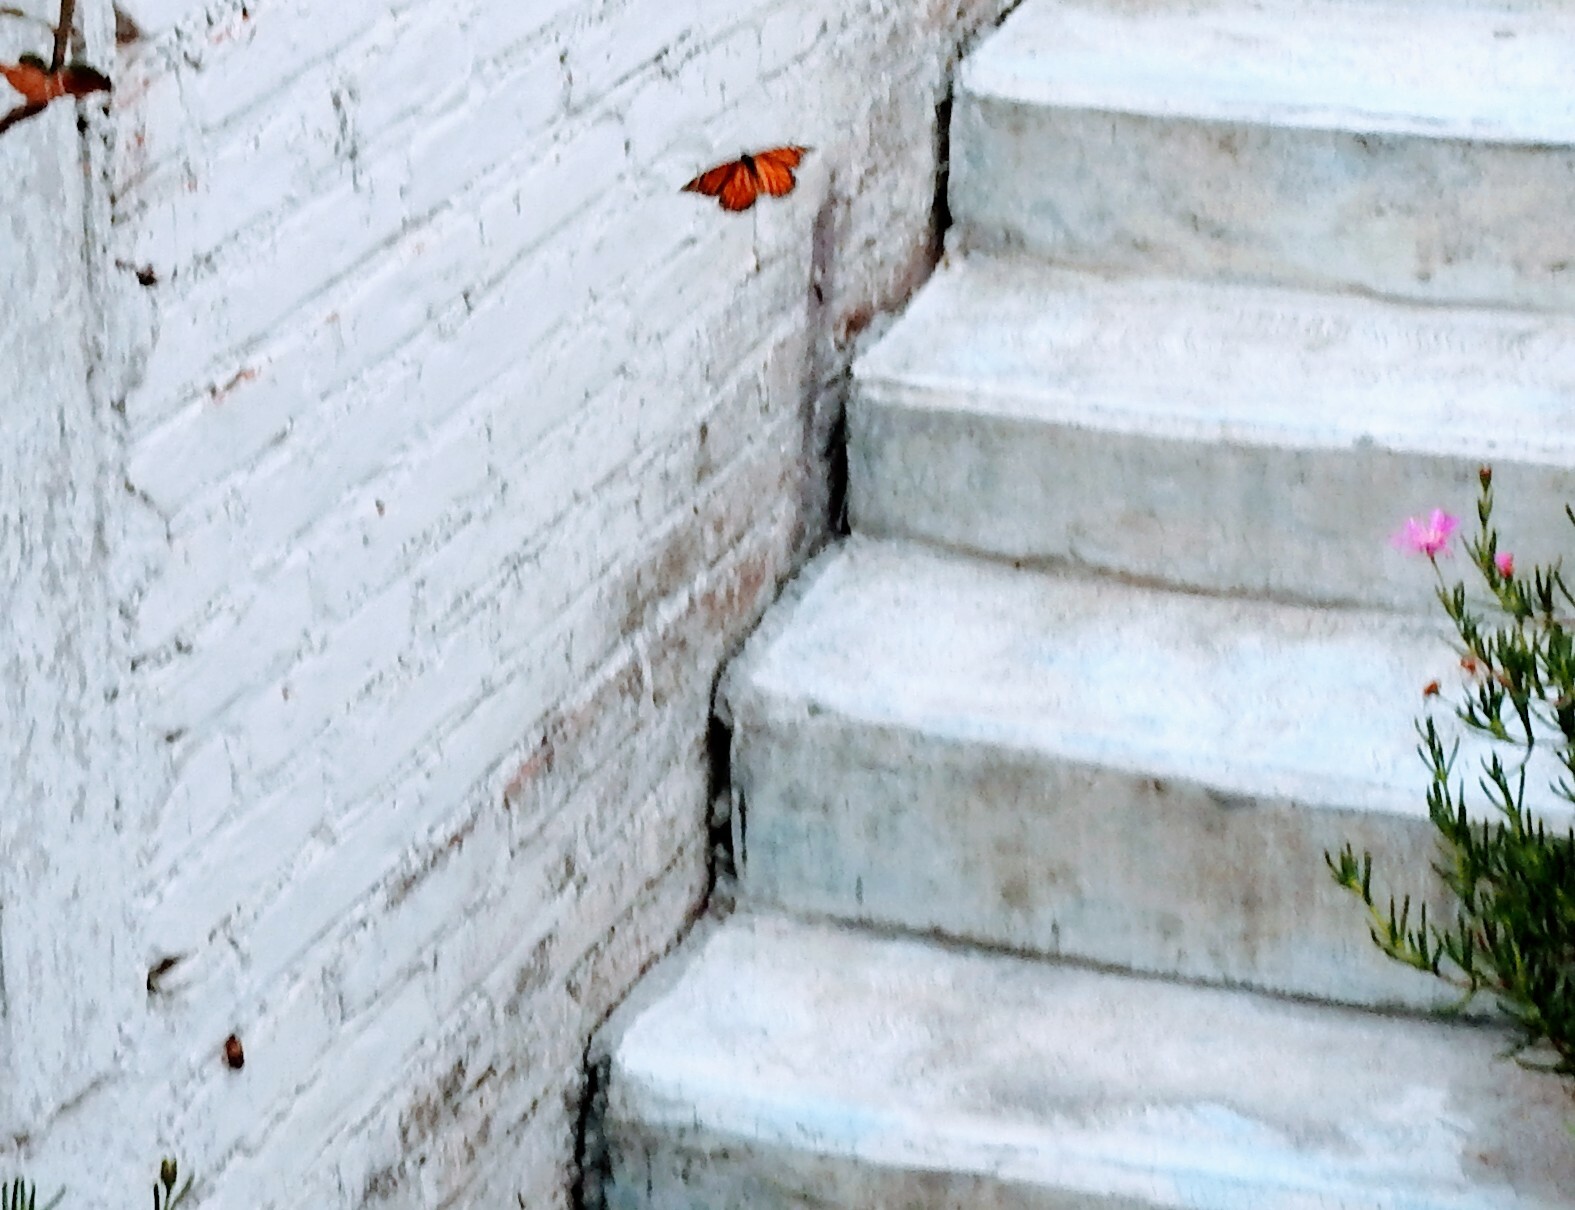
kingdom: Animalia
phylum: Arthropoda
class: Insecta
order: Lepidoptera
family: Nymphalidae
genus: Danaus
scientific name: Danaus plexippus
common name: Monarch
